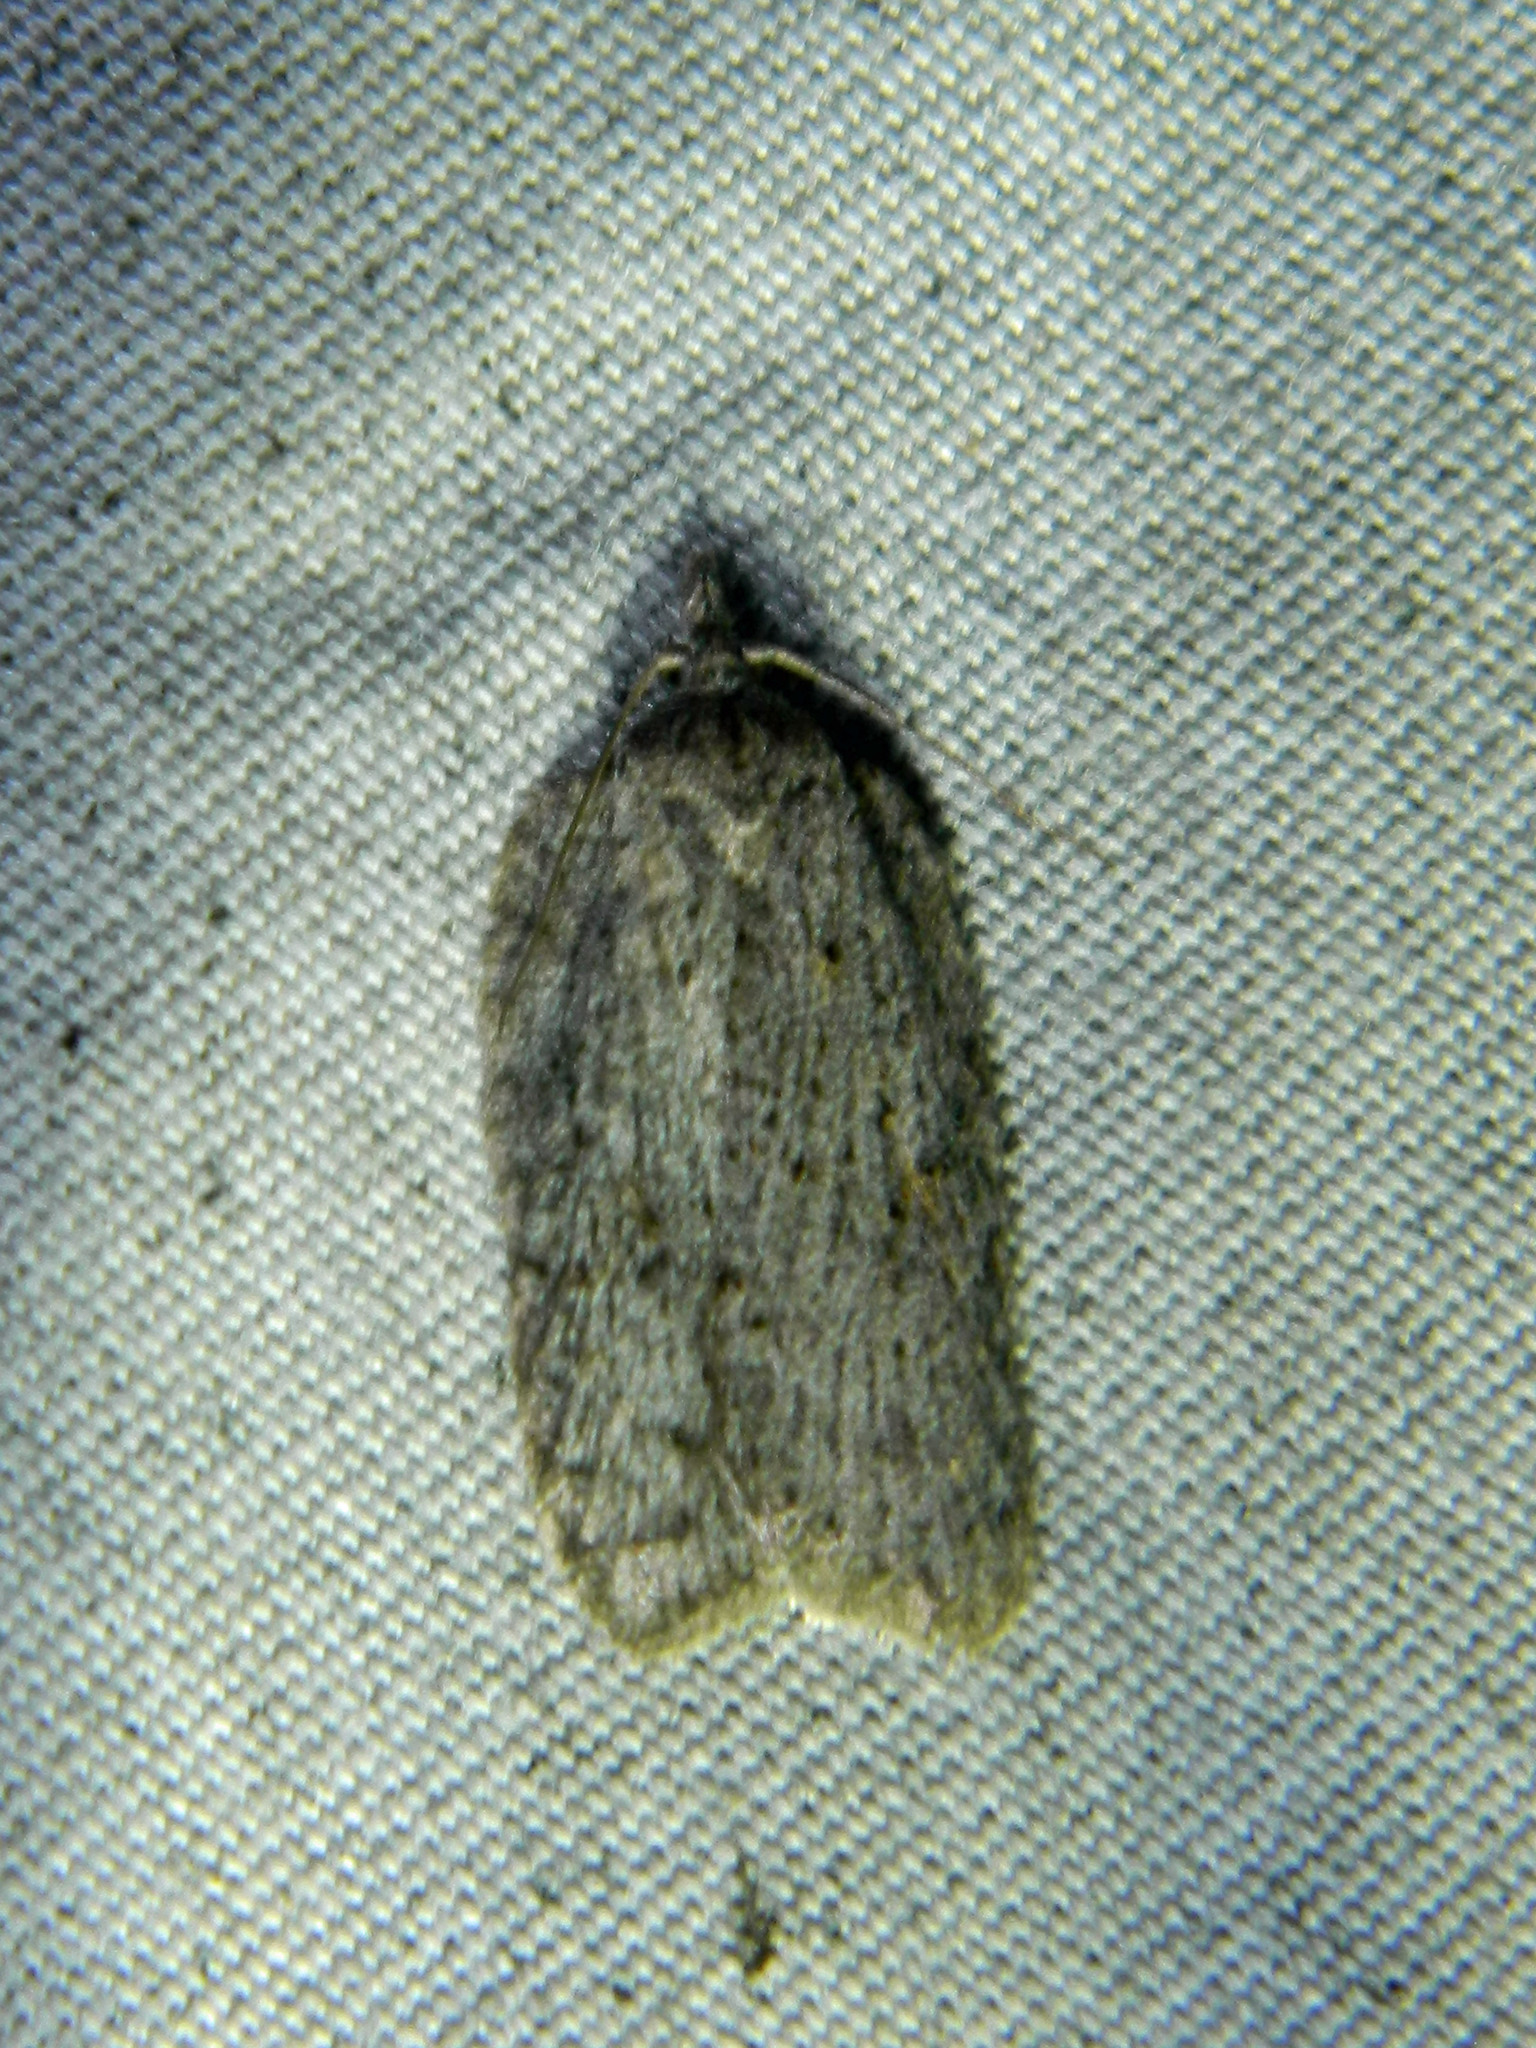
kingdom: Animalia
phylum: Arthropoda
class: Insecta
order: Lepidoptera
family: Tortricidae
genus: Acleris
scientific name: Acleris maximana
